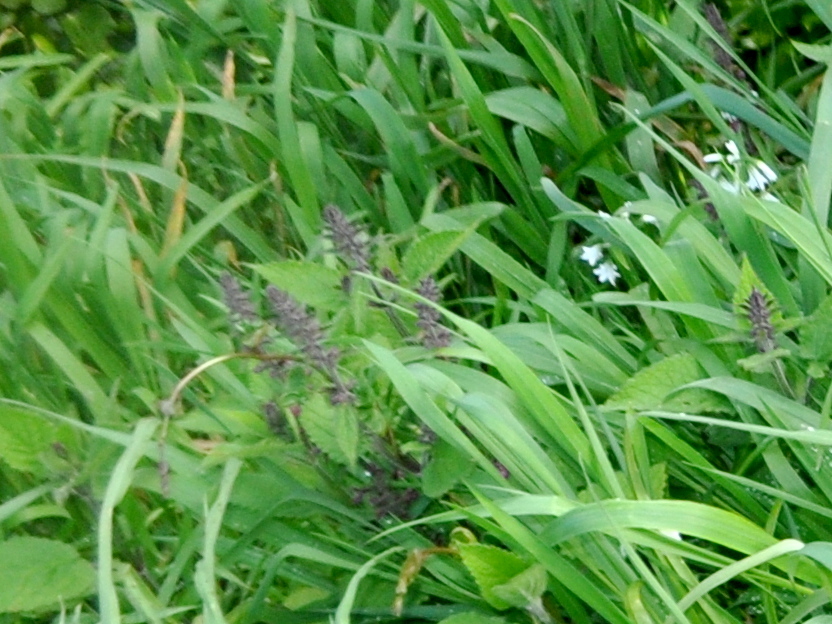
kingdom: Plantae
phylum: Tracheophyta
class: Magnoliopsida
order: Lamiales
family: Lamiaceae
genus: Stachys
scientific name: Stachys sylvatica
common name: Hedge woundwort
